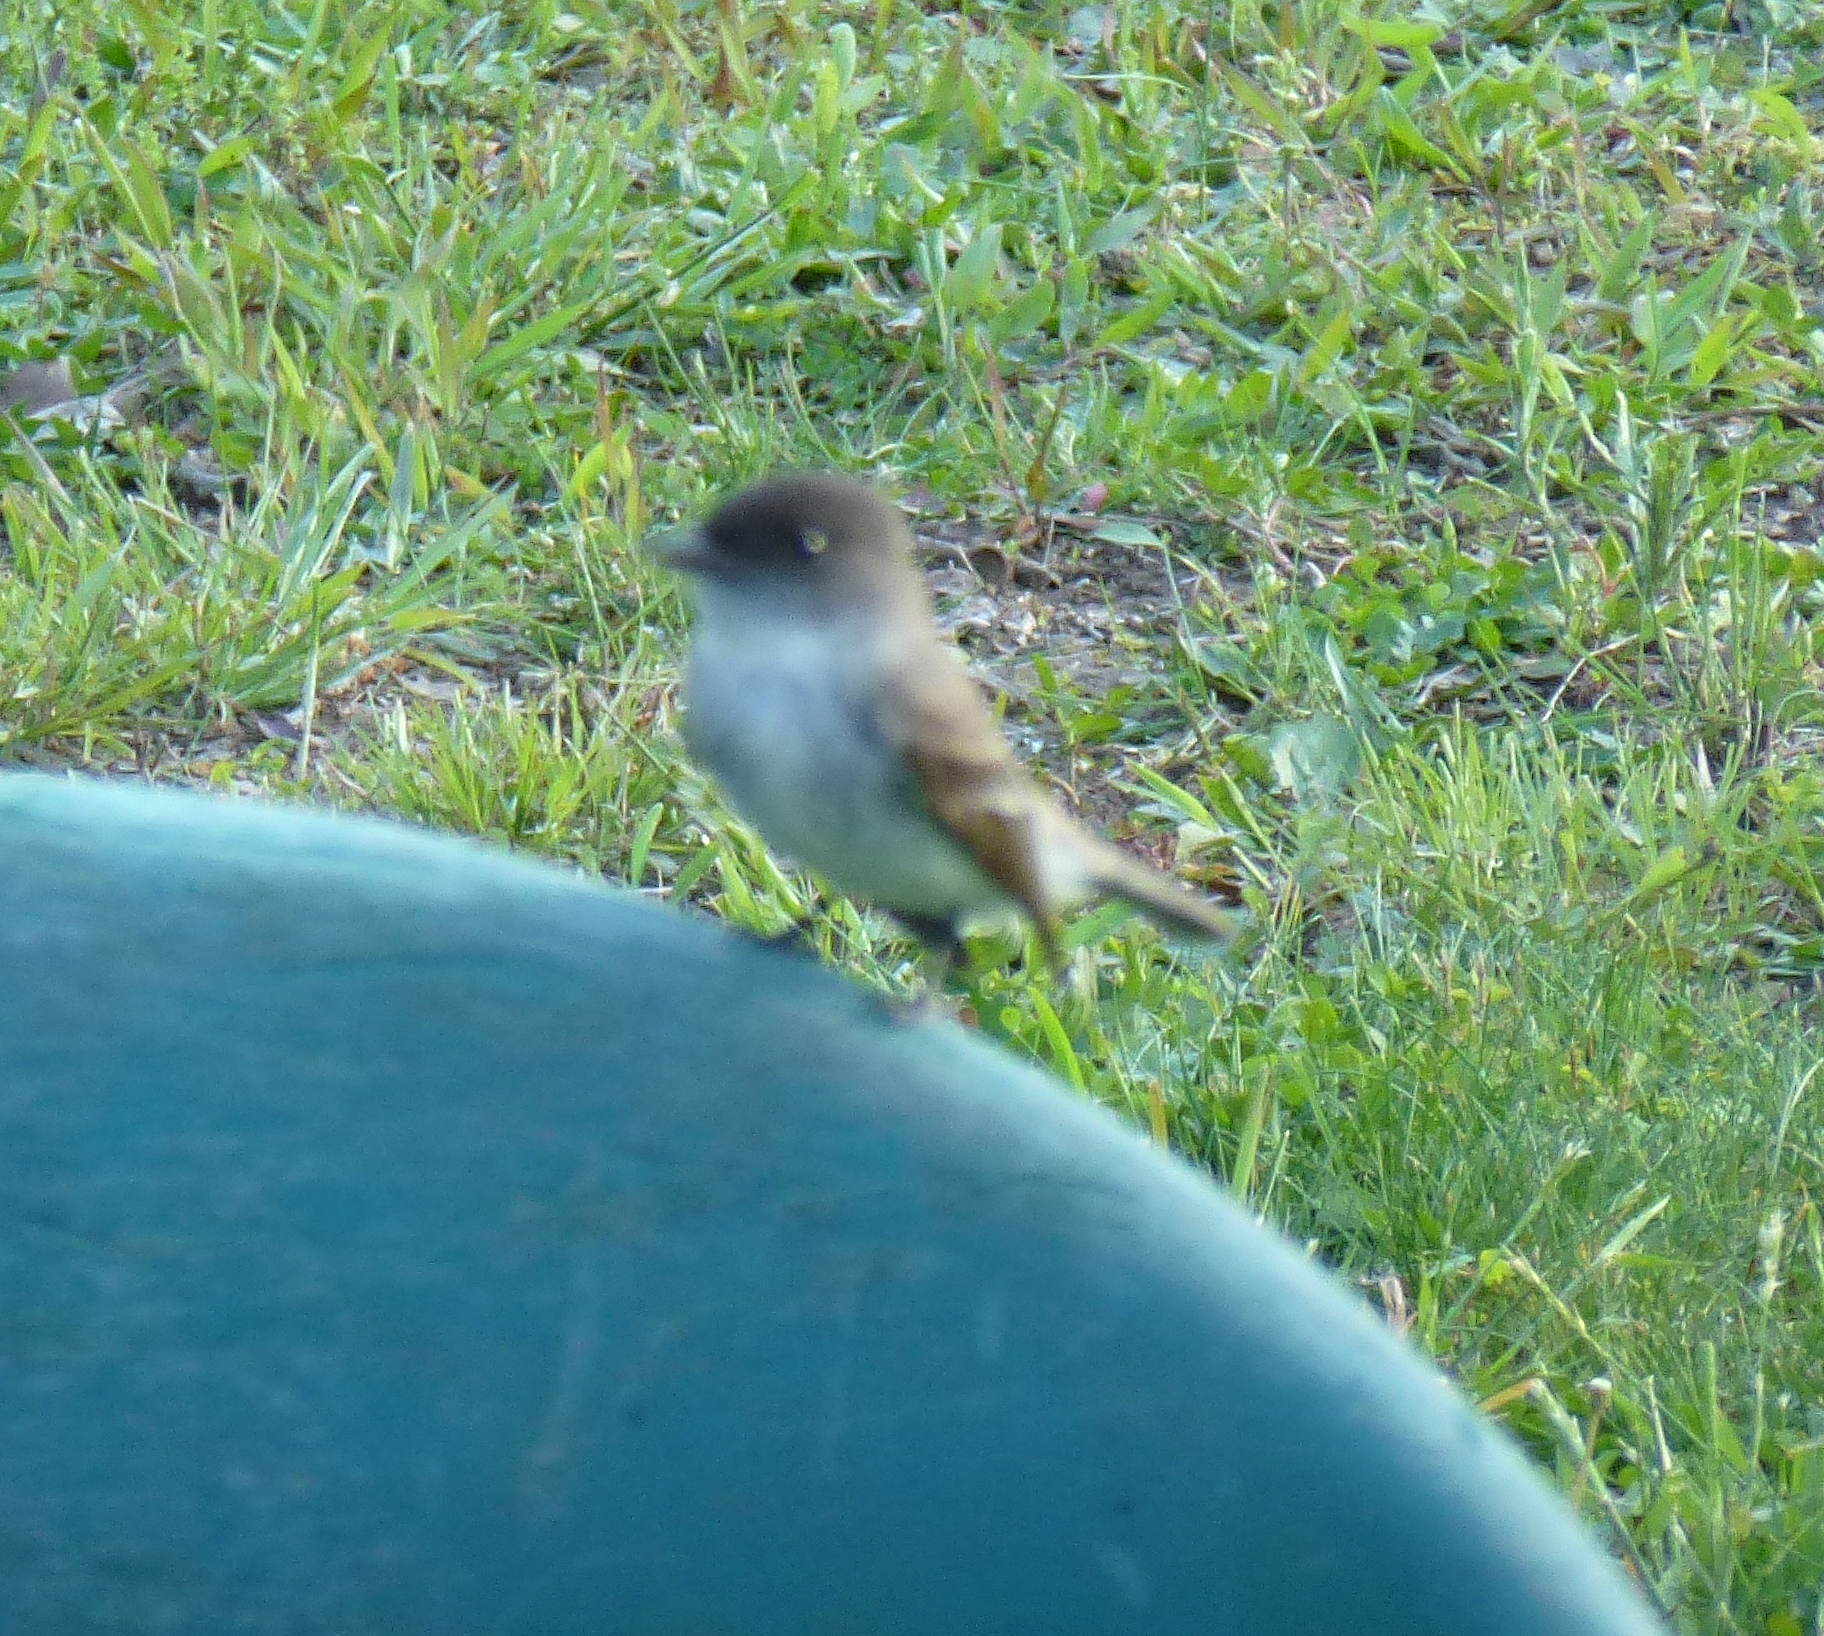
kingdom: Animalia
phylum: Chordata
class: Aves
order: Passeriformes
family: Tyrannidae
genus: Sayornis
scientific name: Sayornis phoebe
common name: Eastern phoebe
